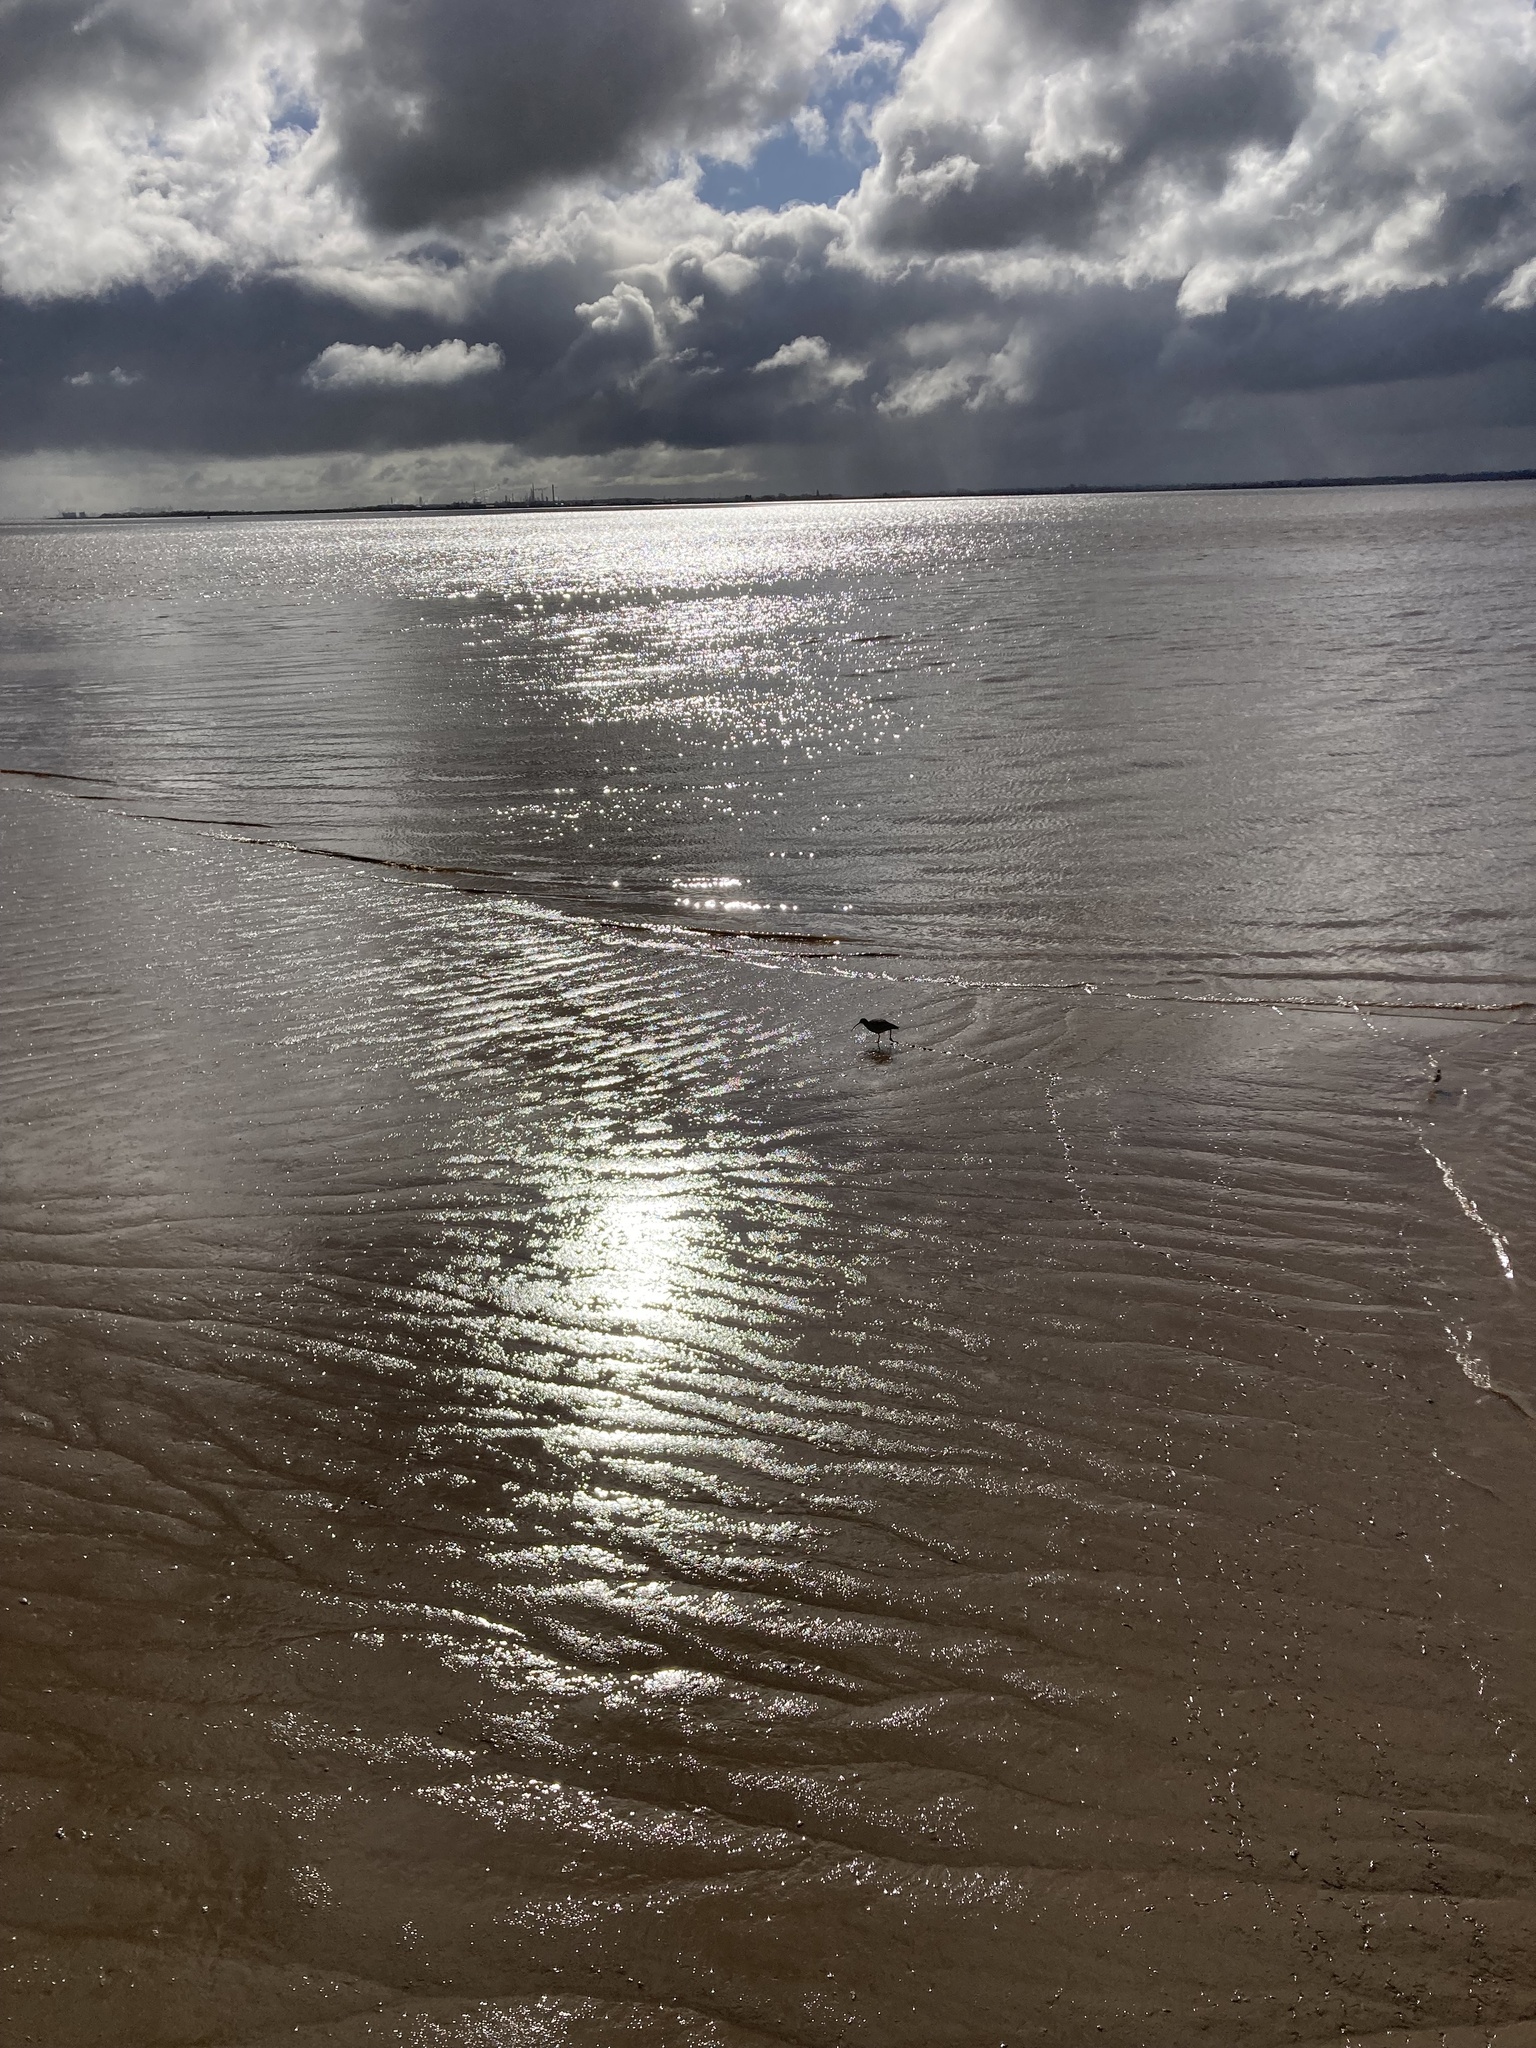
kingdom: Animalia
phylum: Chordata
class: Aves
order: Charadriiformes
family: Scolopacidae
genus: Numenius
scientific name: Numenius arquata
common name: Eurasian curlew
